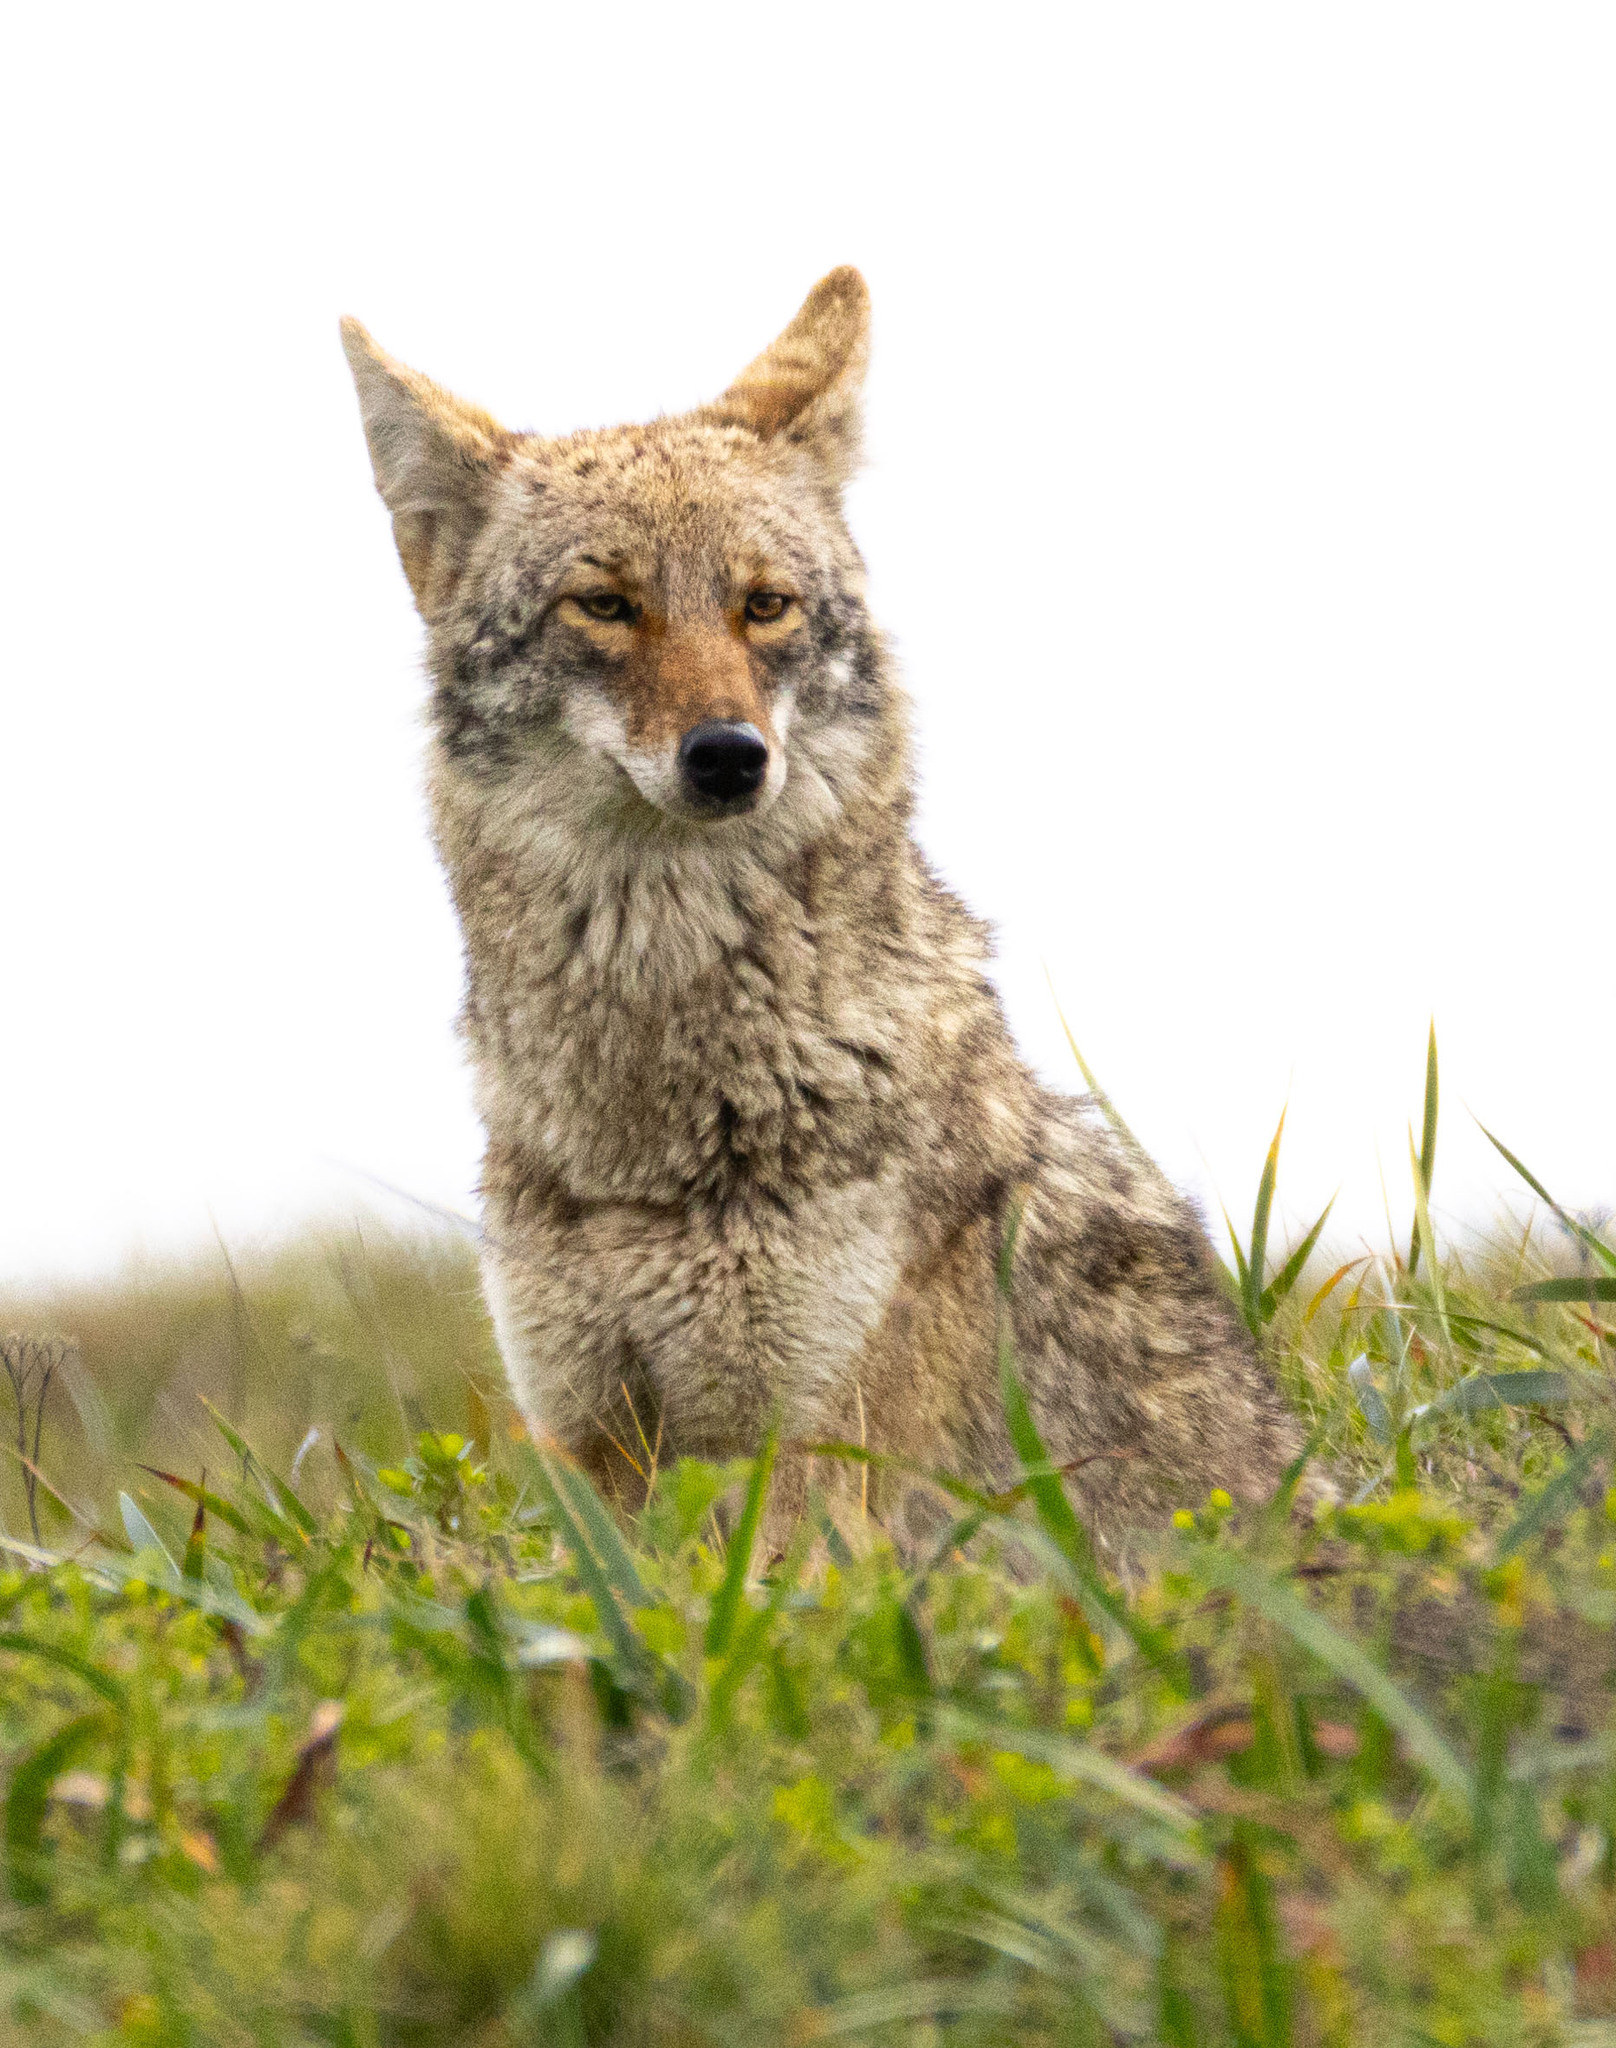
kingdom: Animalia
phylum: Chordata
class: Mammalia
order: Carnivora
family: Canidae
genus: Canis
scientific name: Canis latrans
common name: Coyote
